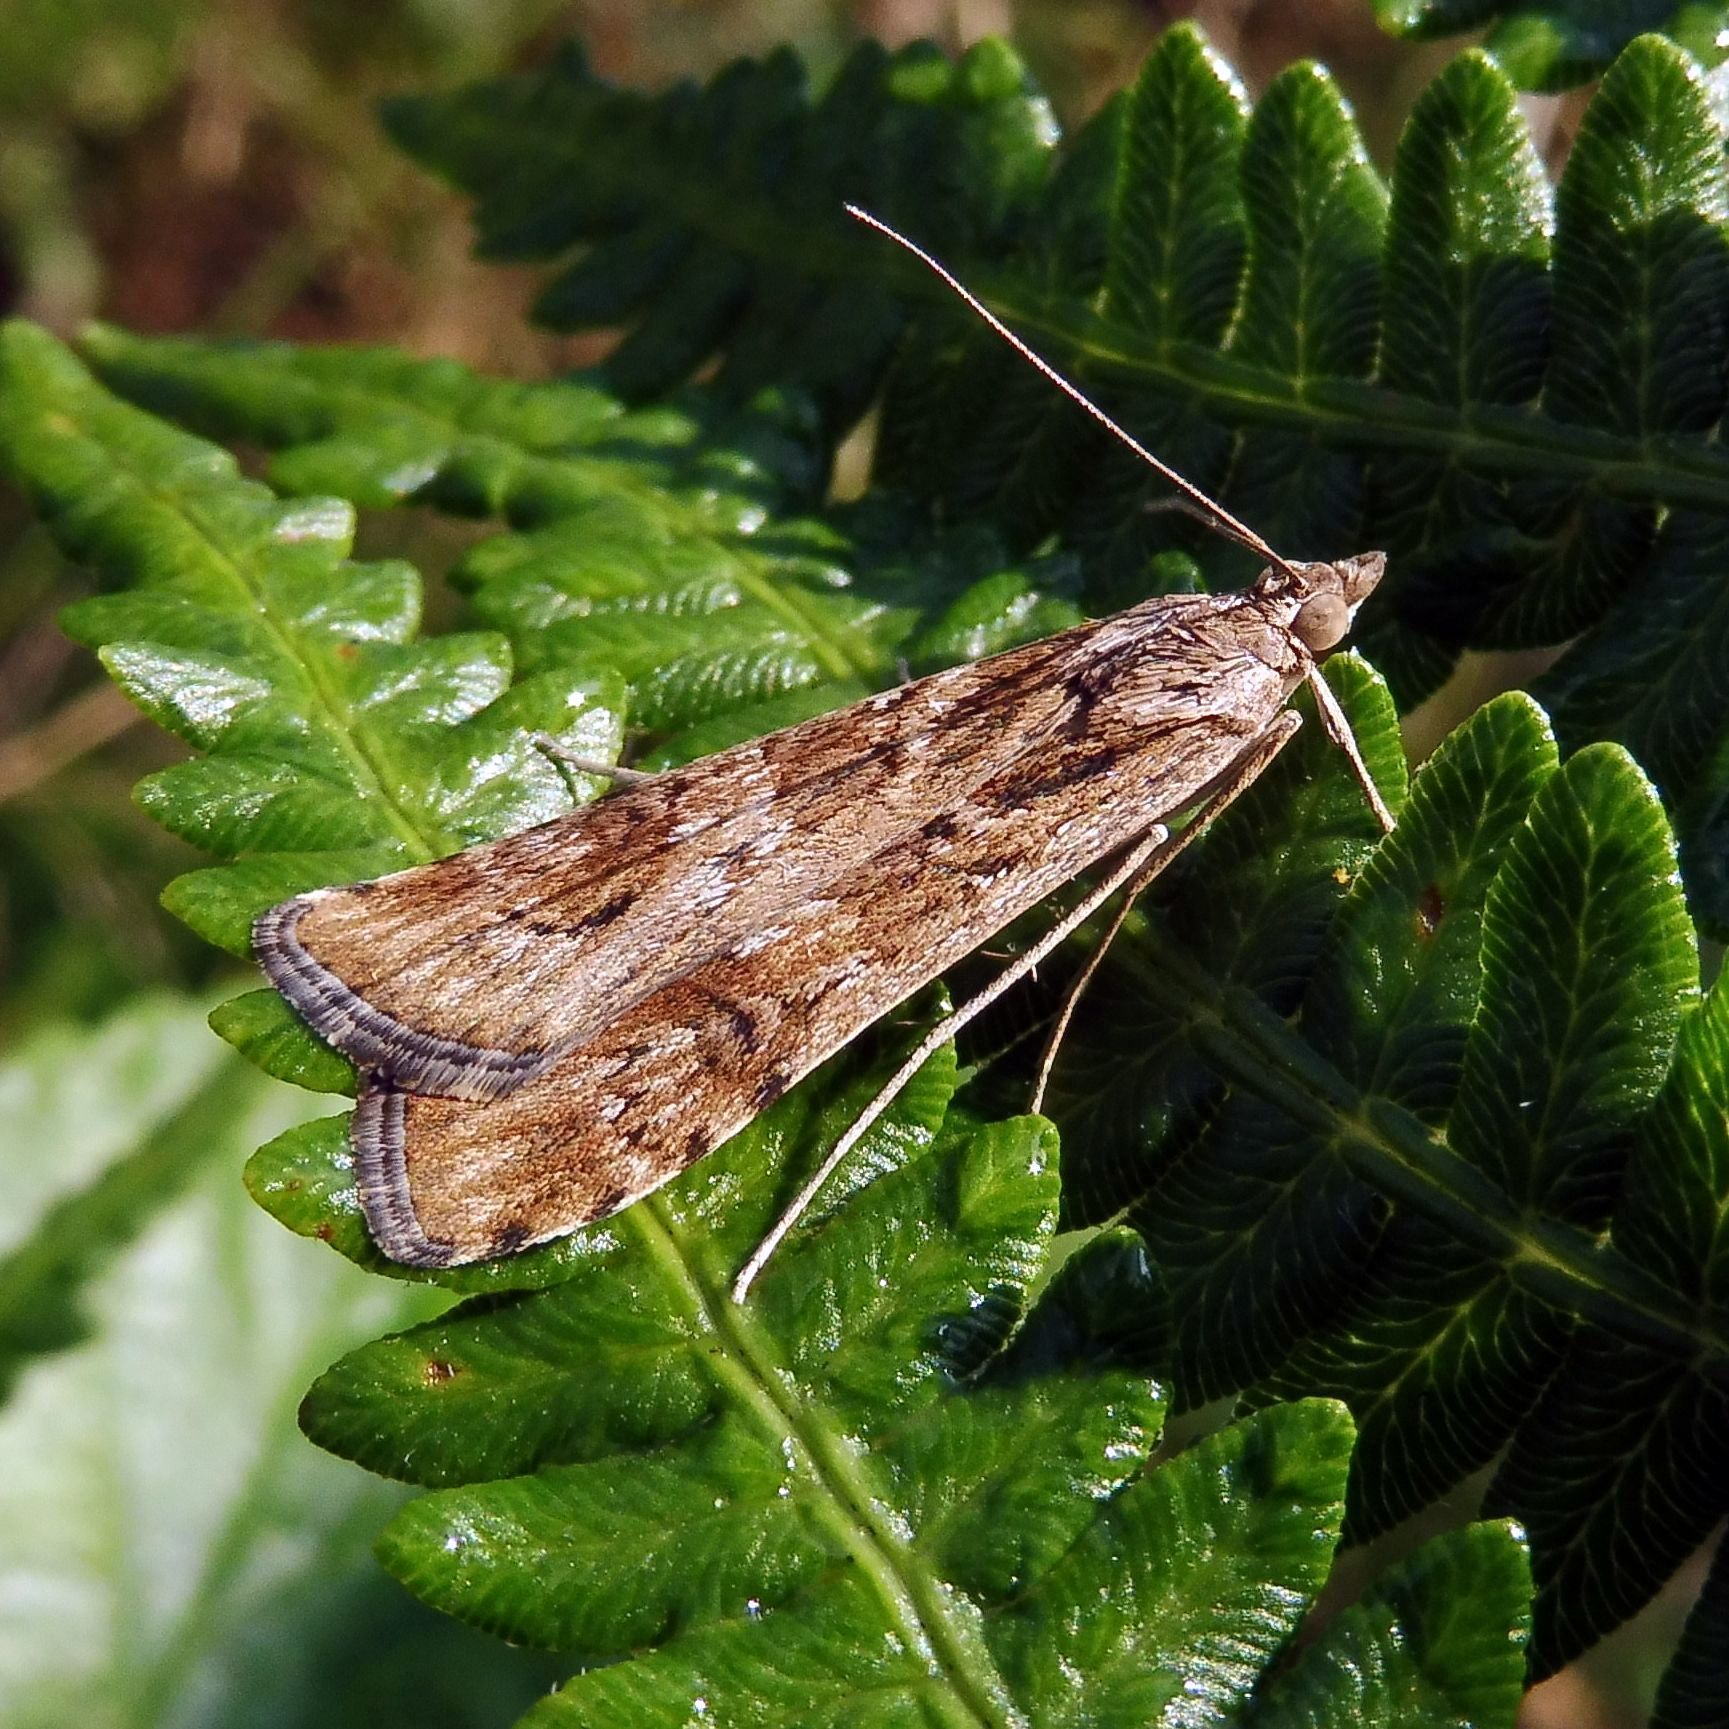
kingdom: Animalia
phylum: Arthropoda
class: Insecta
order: Lepidoptera
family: Crambidae
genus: Nomophila
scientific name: Nomophila noctuella
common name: Rush veneer
